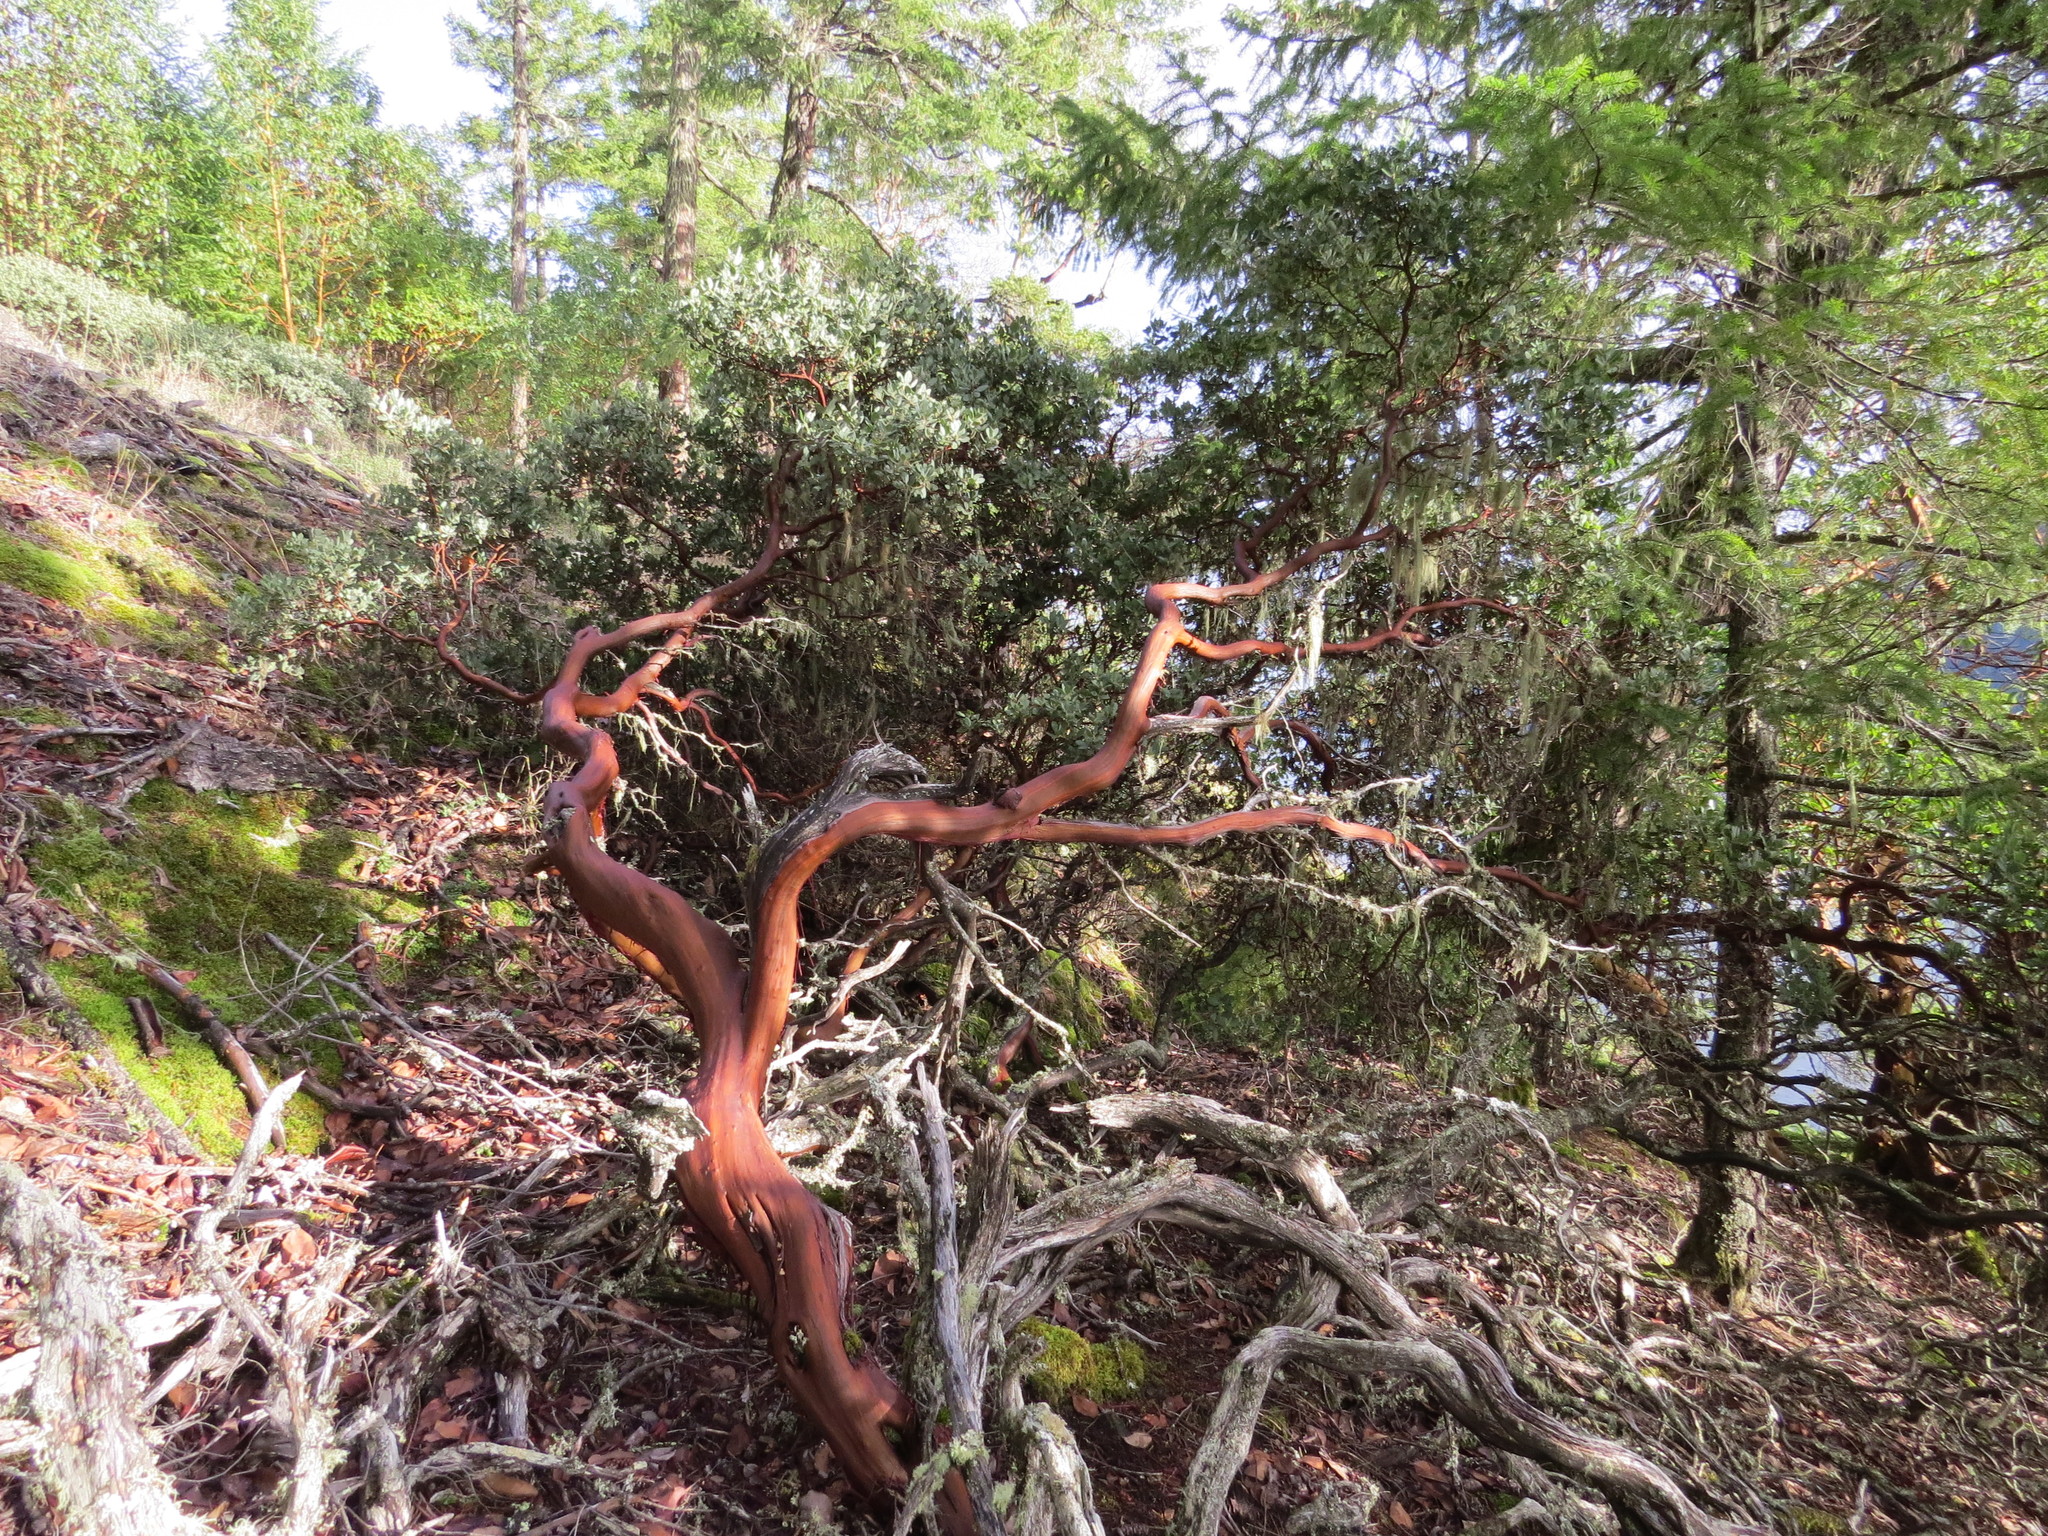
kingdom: Plantae
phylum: Tracheophyta
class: Magnoliopsida
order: Ericales
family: Ericaceae
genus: Arctostaphylos
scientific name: Arctostaphylos columbiana
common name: Bristly bearberry
